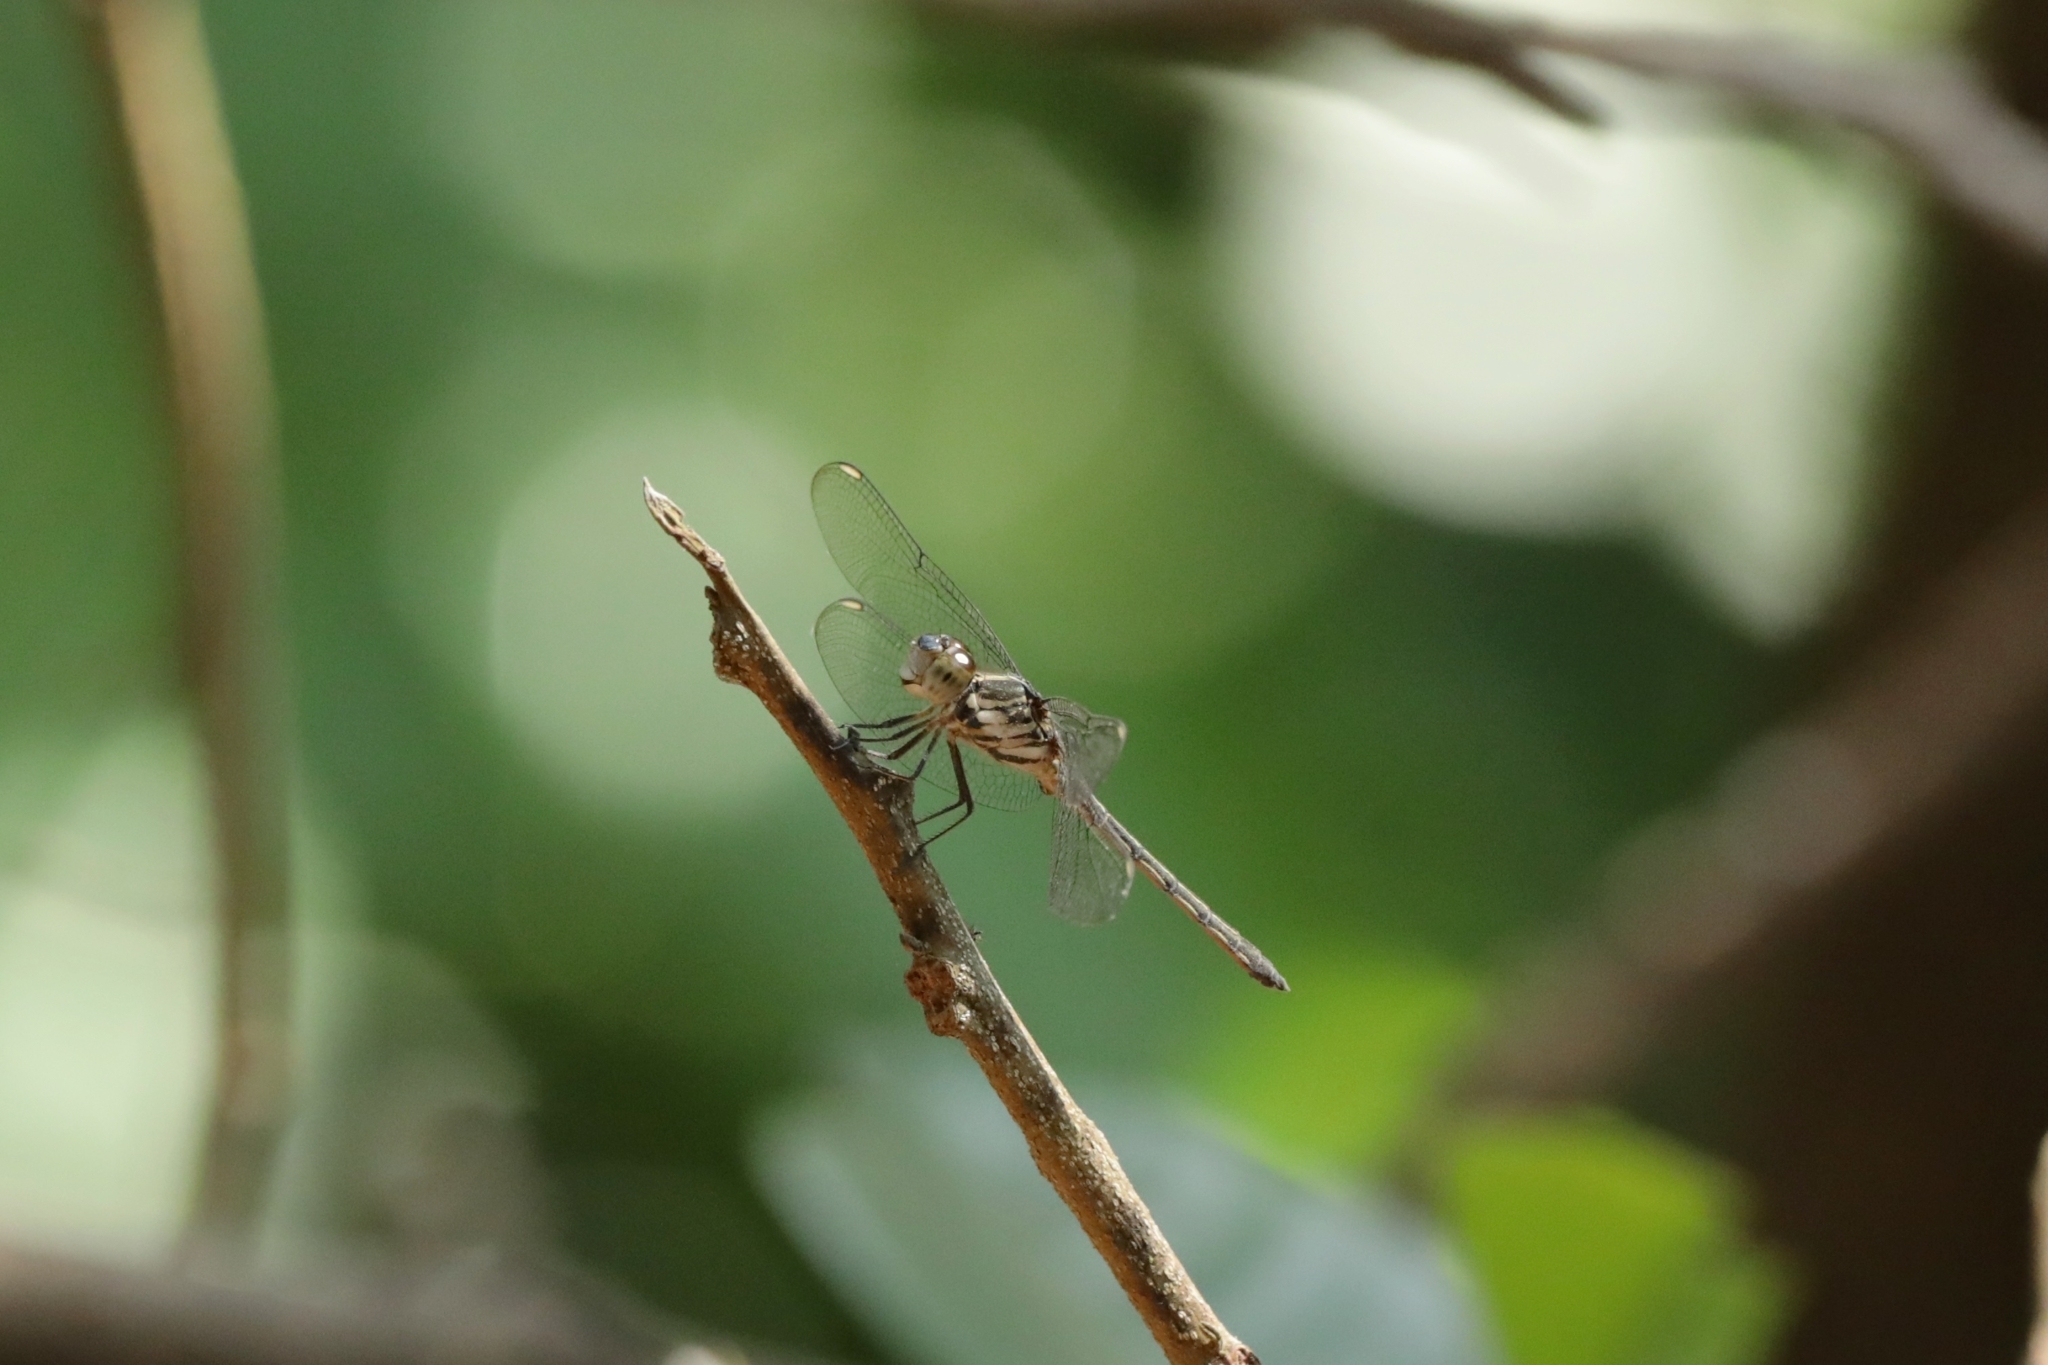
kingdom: Animalia
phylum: Arthropoda
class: Insecta
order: Odonata
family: Libellulidae
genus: Cratilla
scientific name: Cratilla lineata
